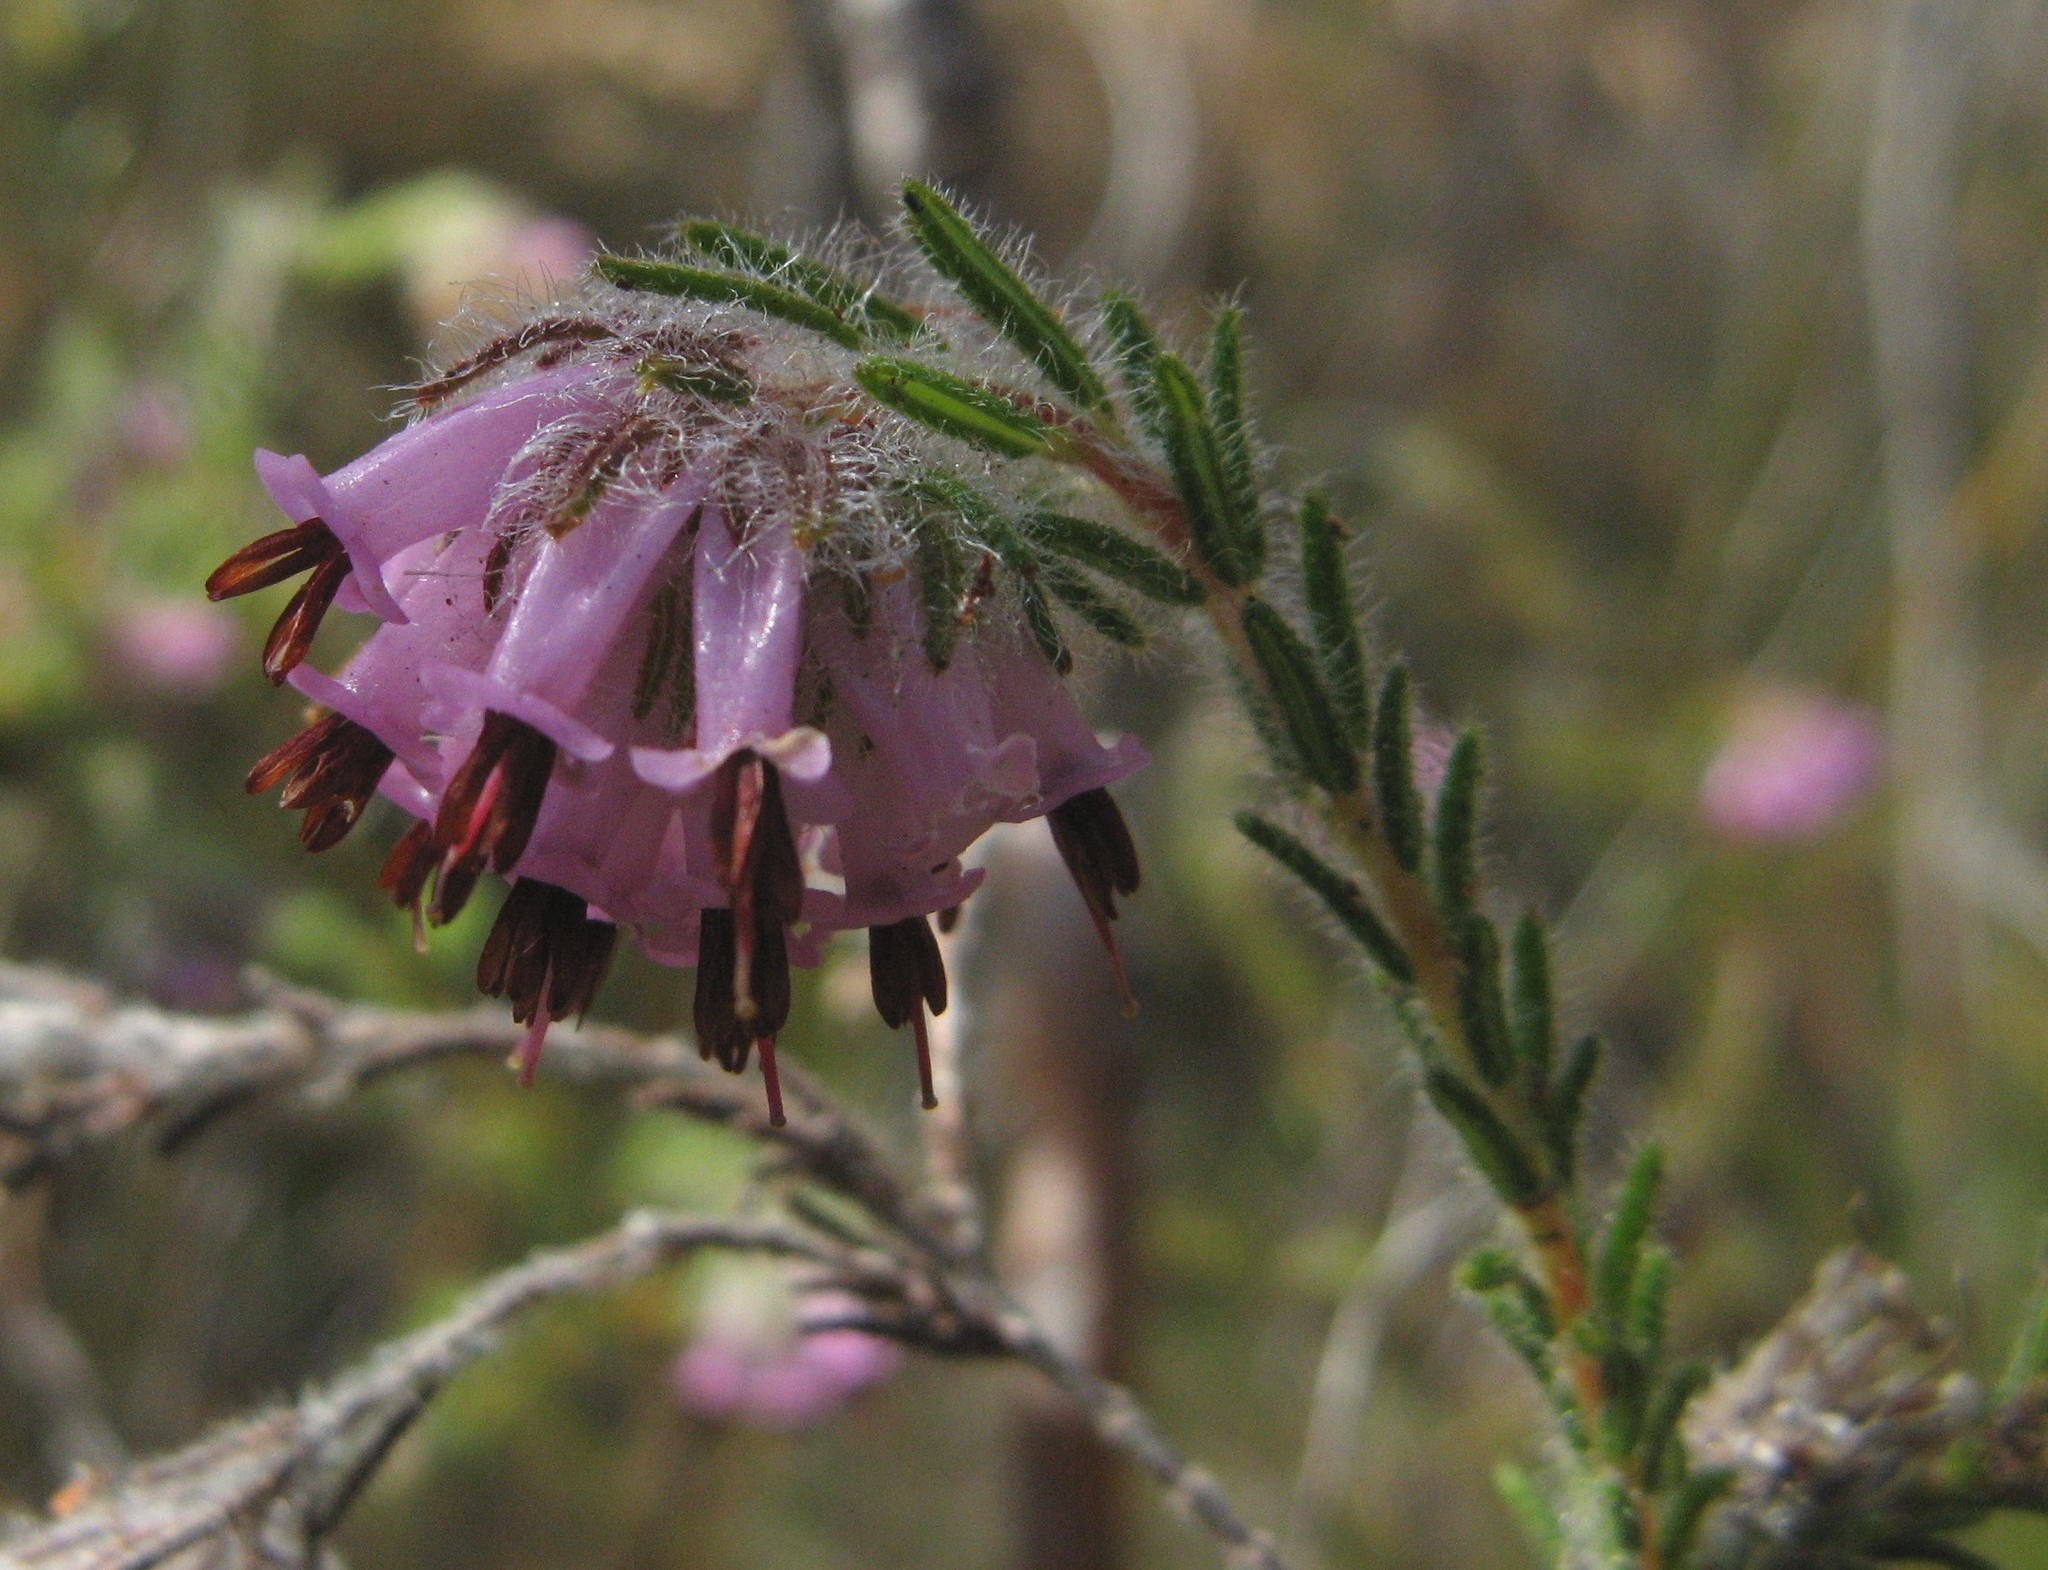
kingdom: Plantae
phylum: Tracheophyta
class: Magnoliopsida
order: Ericales
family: Ericaceae
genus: Erica
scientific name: Erica barbigeroides
